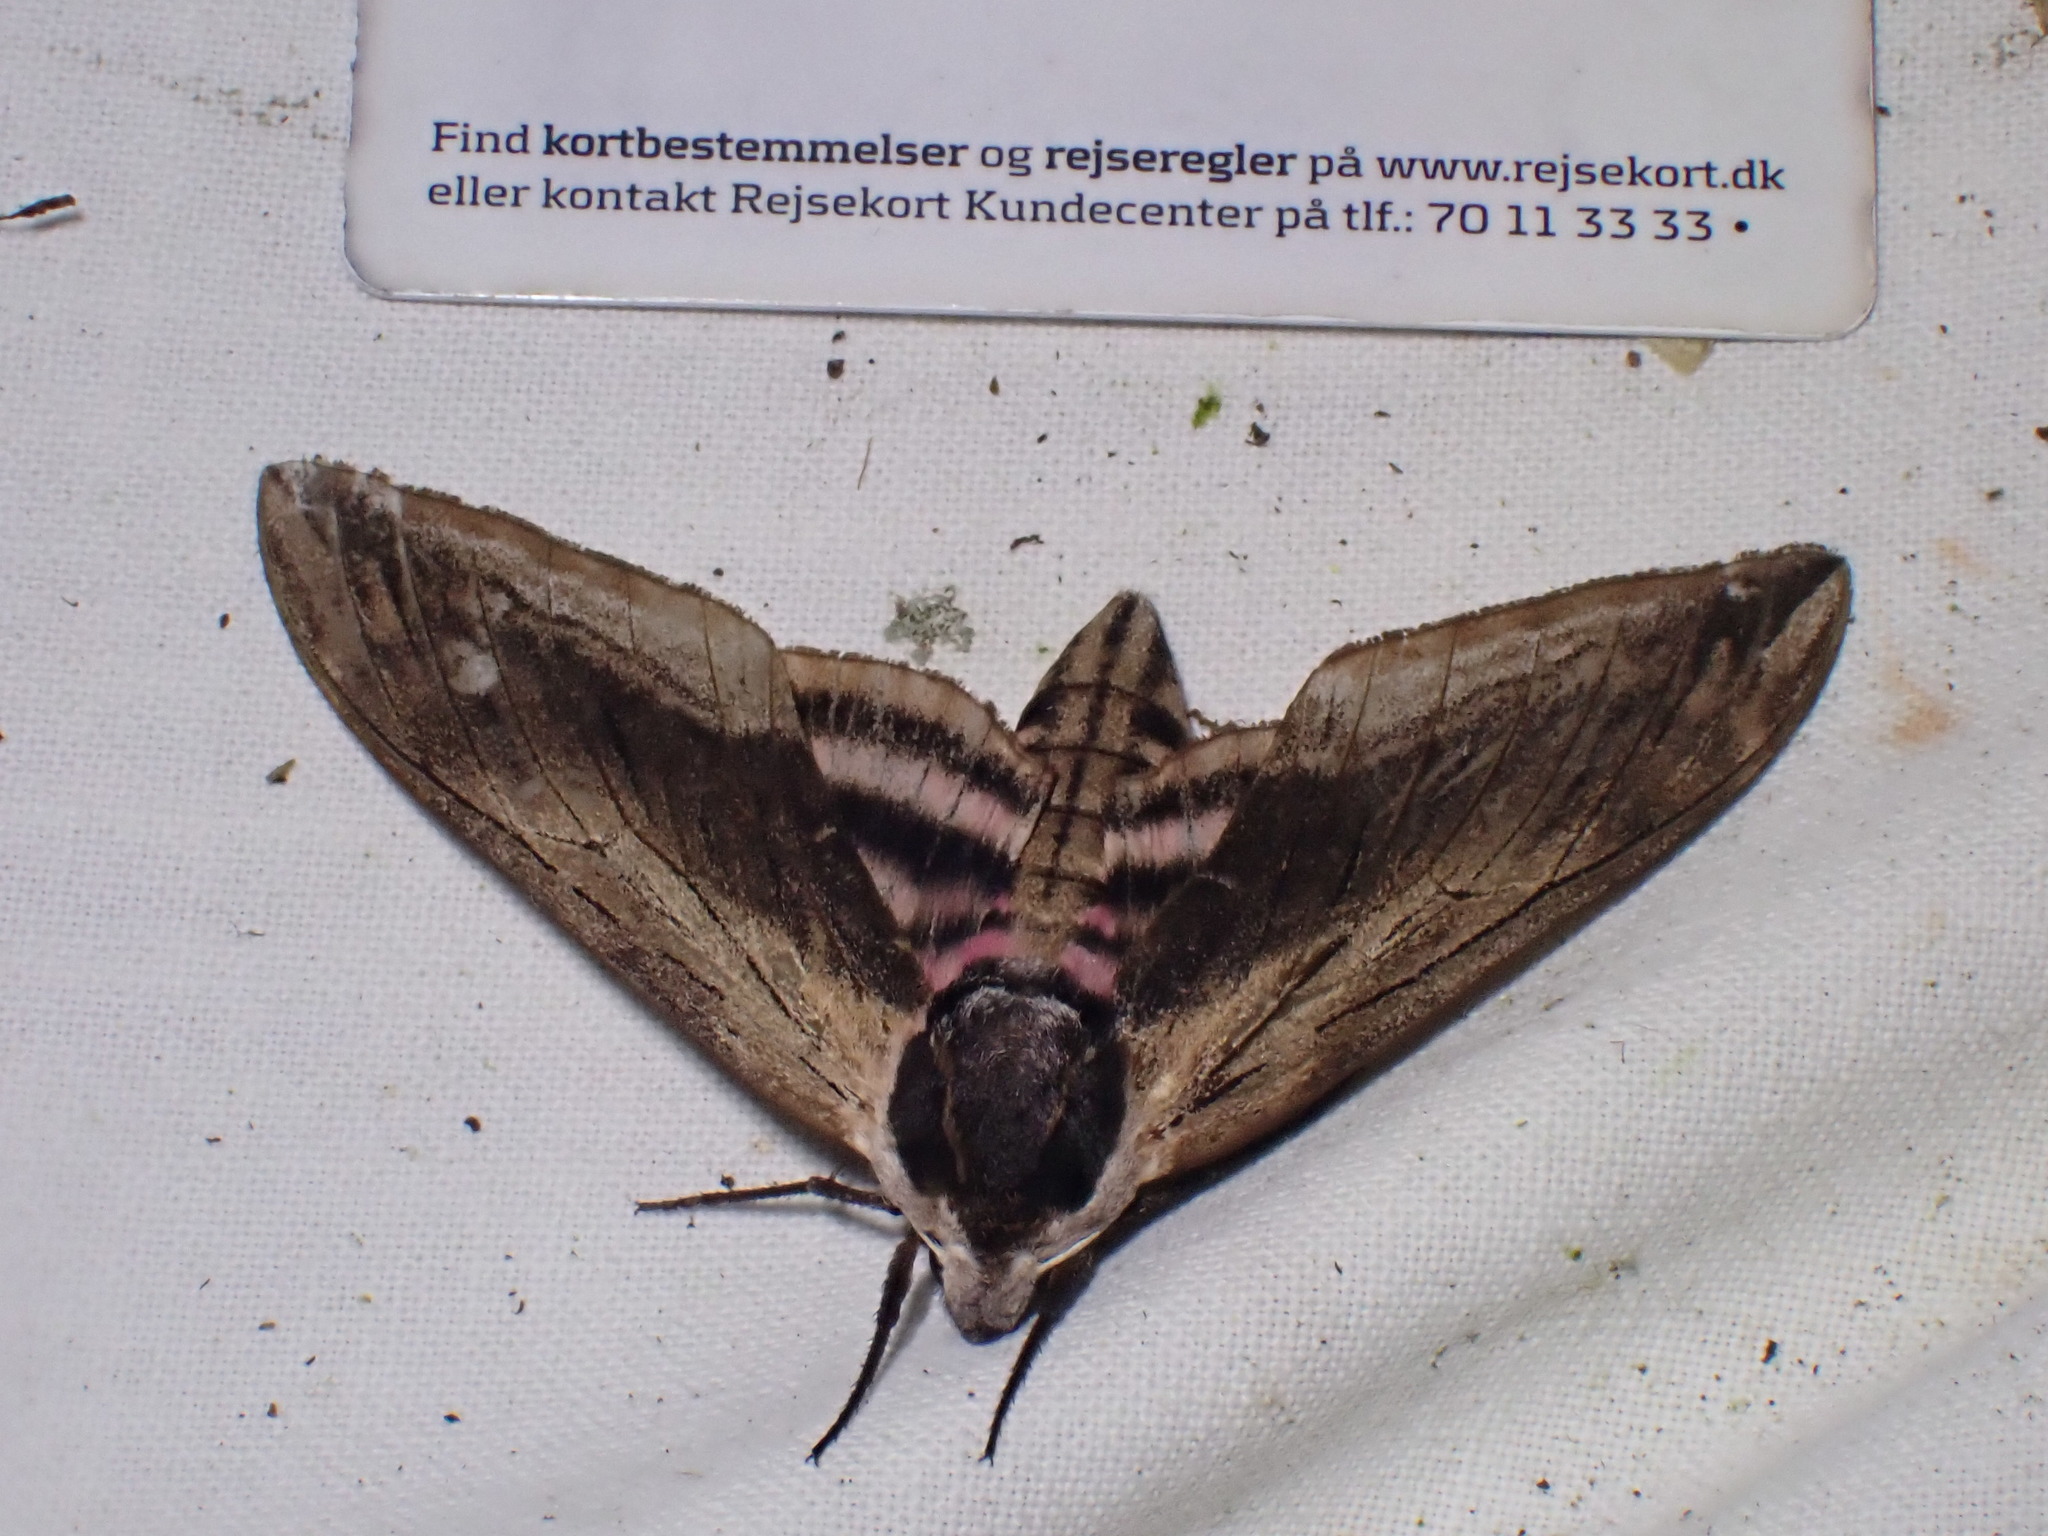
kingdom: Animalia
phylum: Arthropoda
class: Insecta
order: Lepidoptera
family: Sphingidae
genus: Sphinx
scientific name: Sphinx ligustri
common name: Privet hawk-moth
